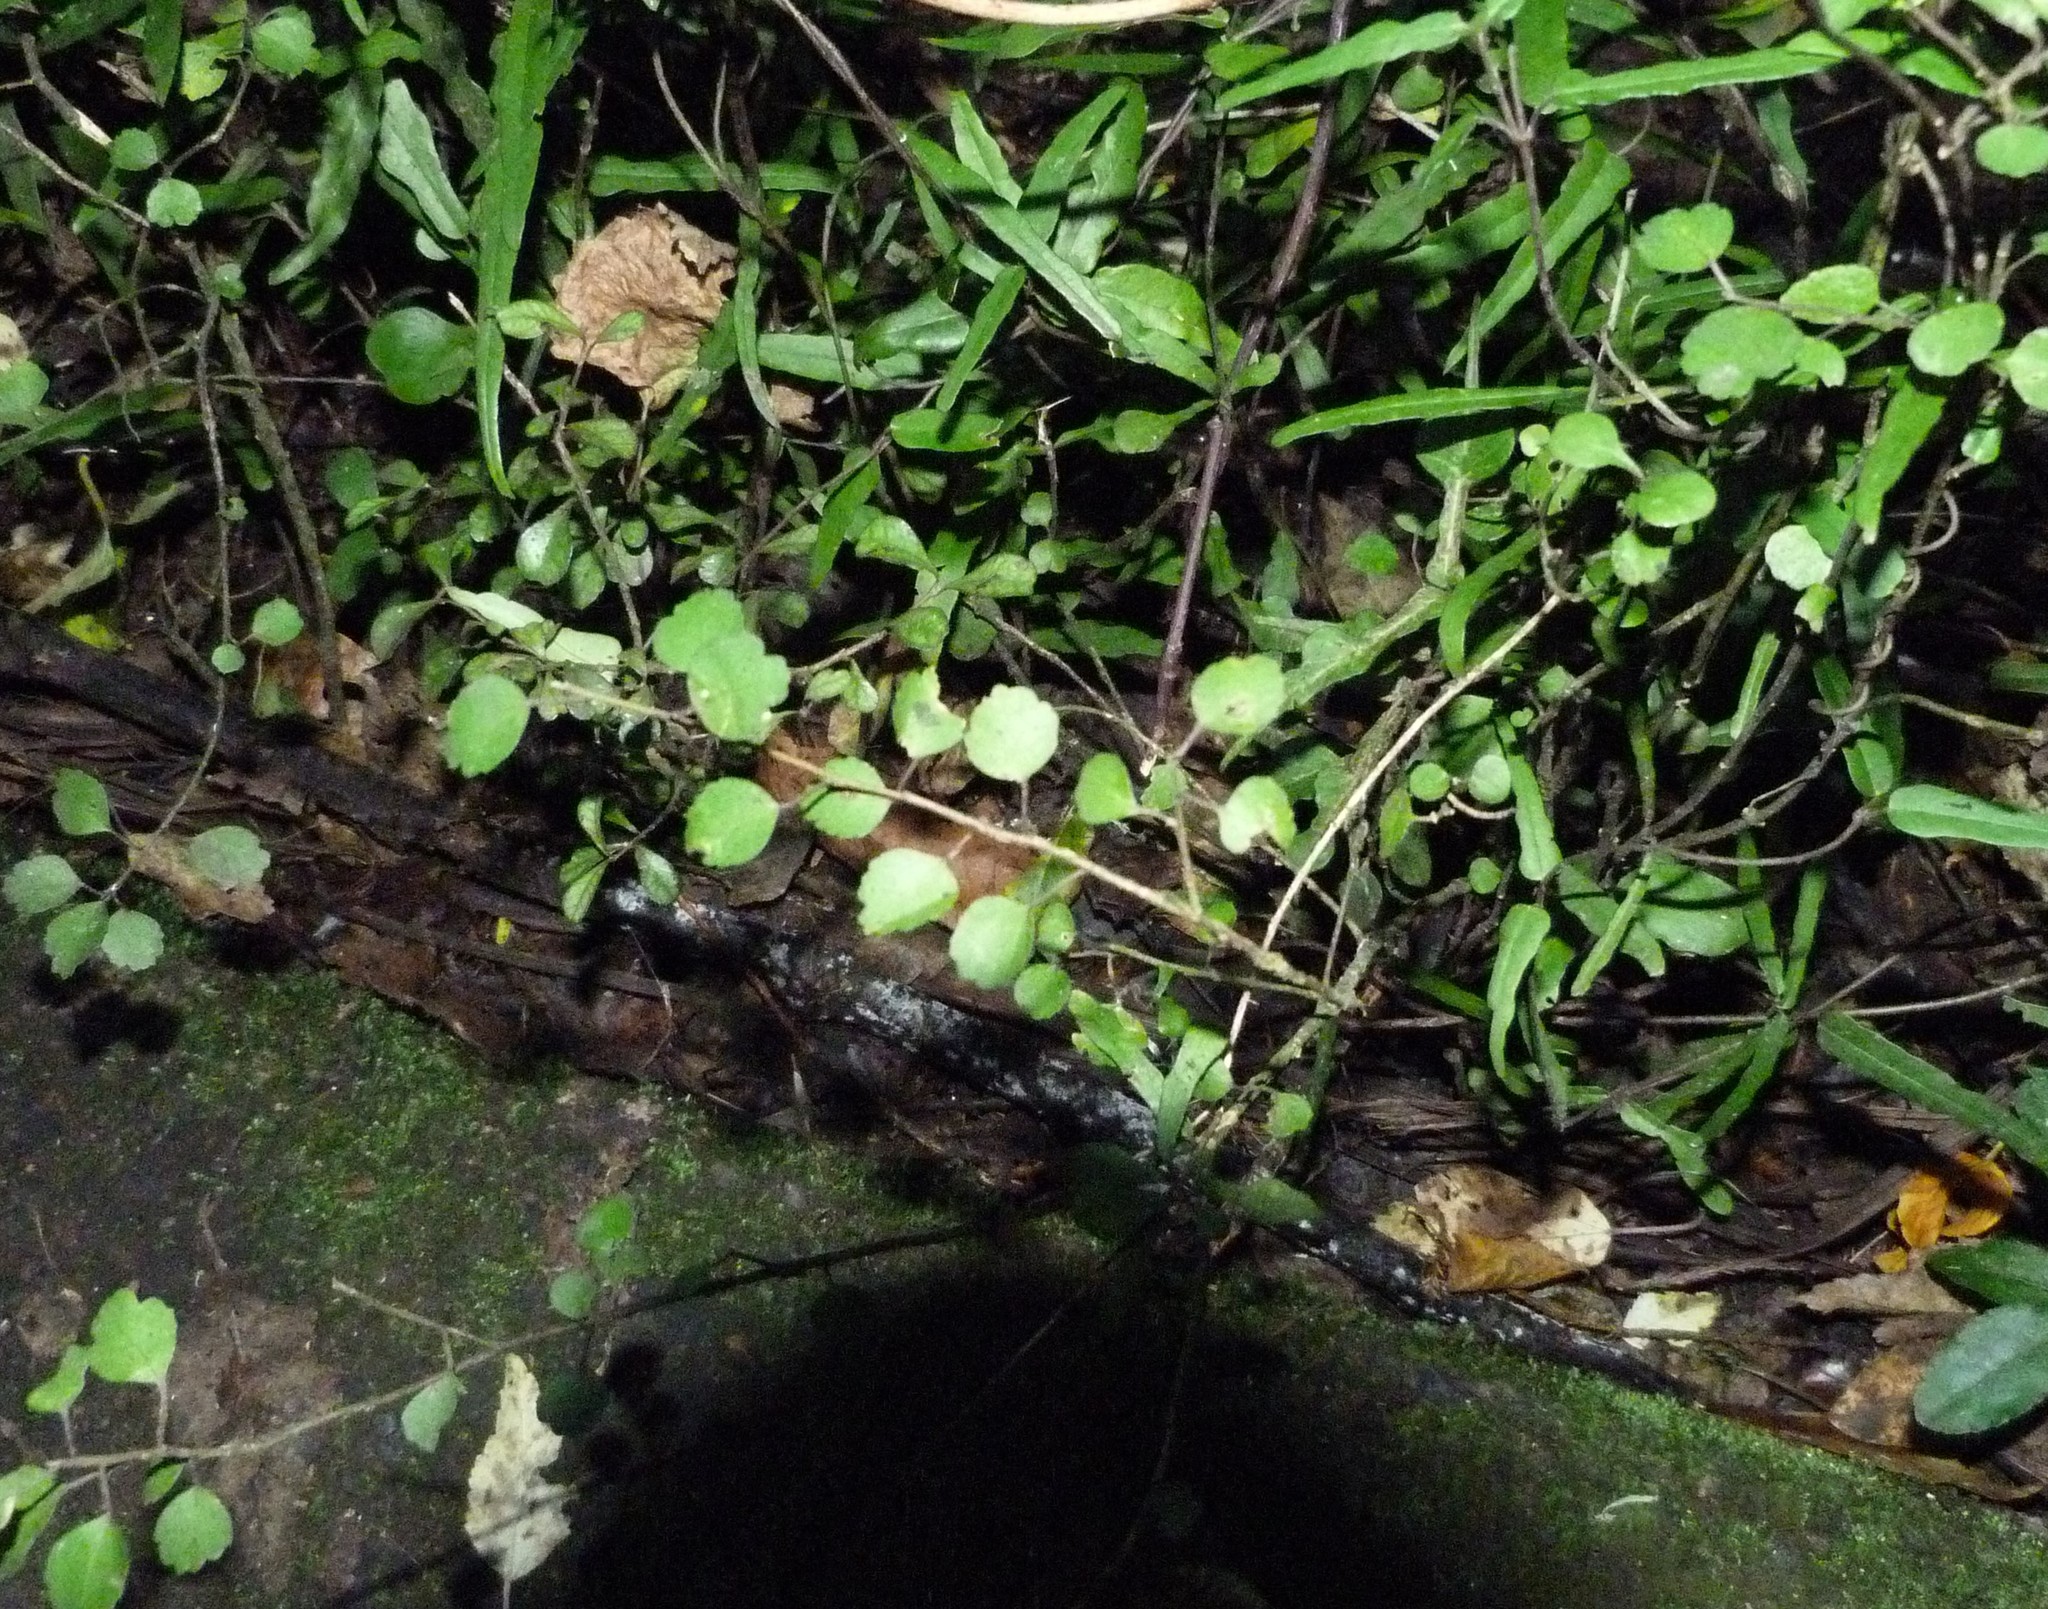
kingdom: Plantae
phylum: Tracheophyta
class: Magnoliopsida
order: Malvales
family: Malvaceae
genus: Hoheria
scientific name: Hoheria angustifolia
